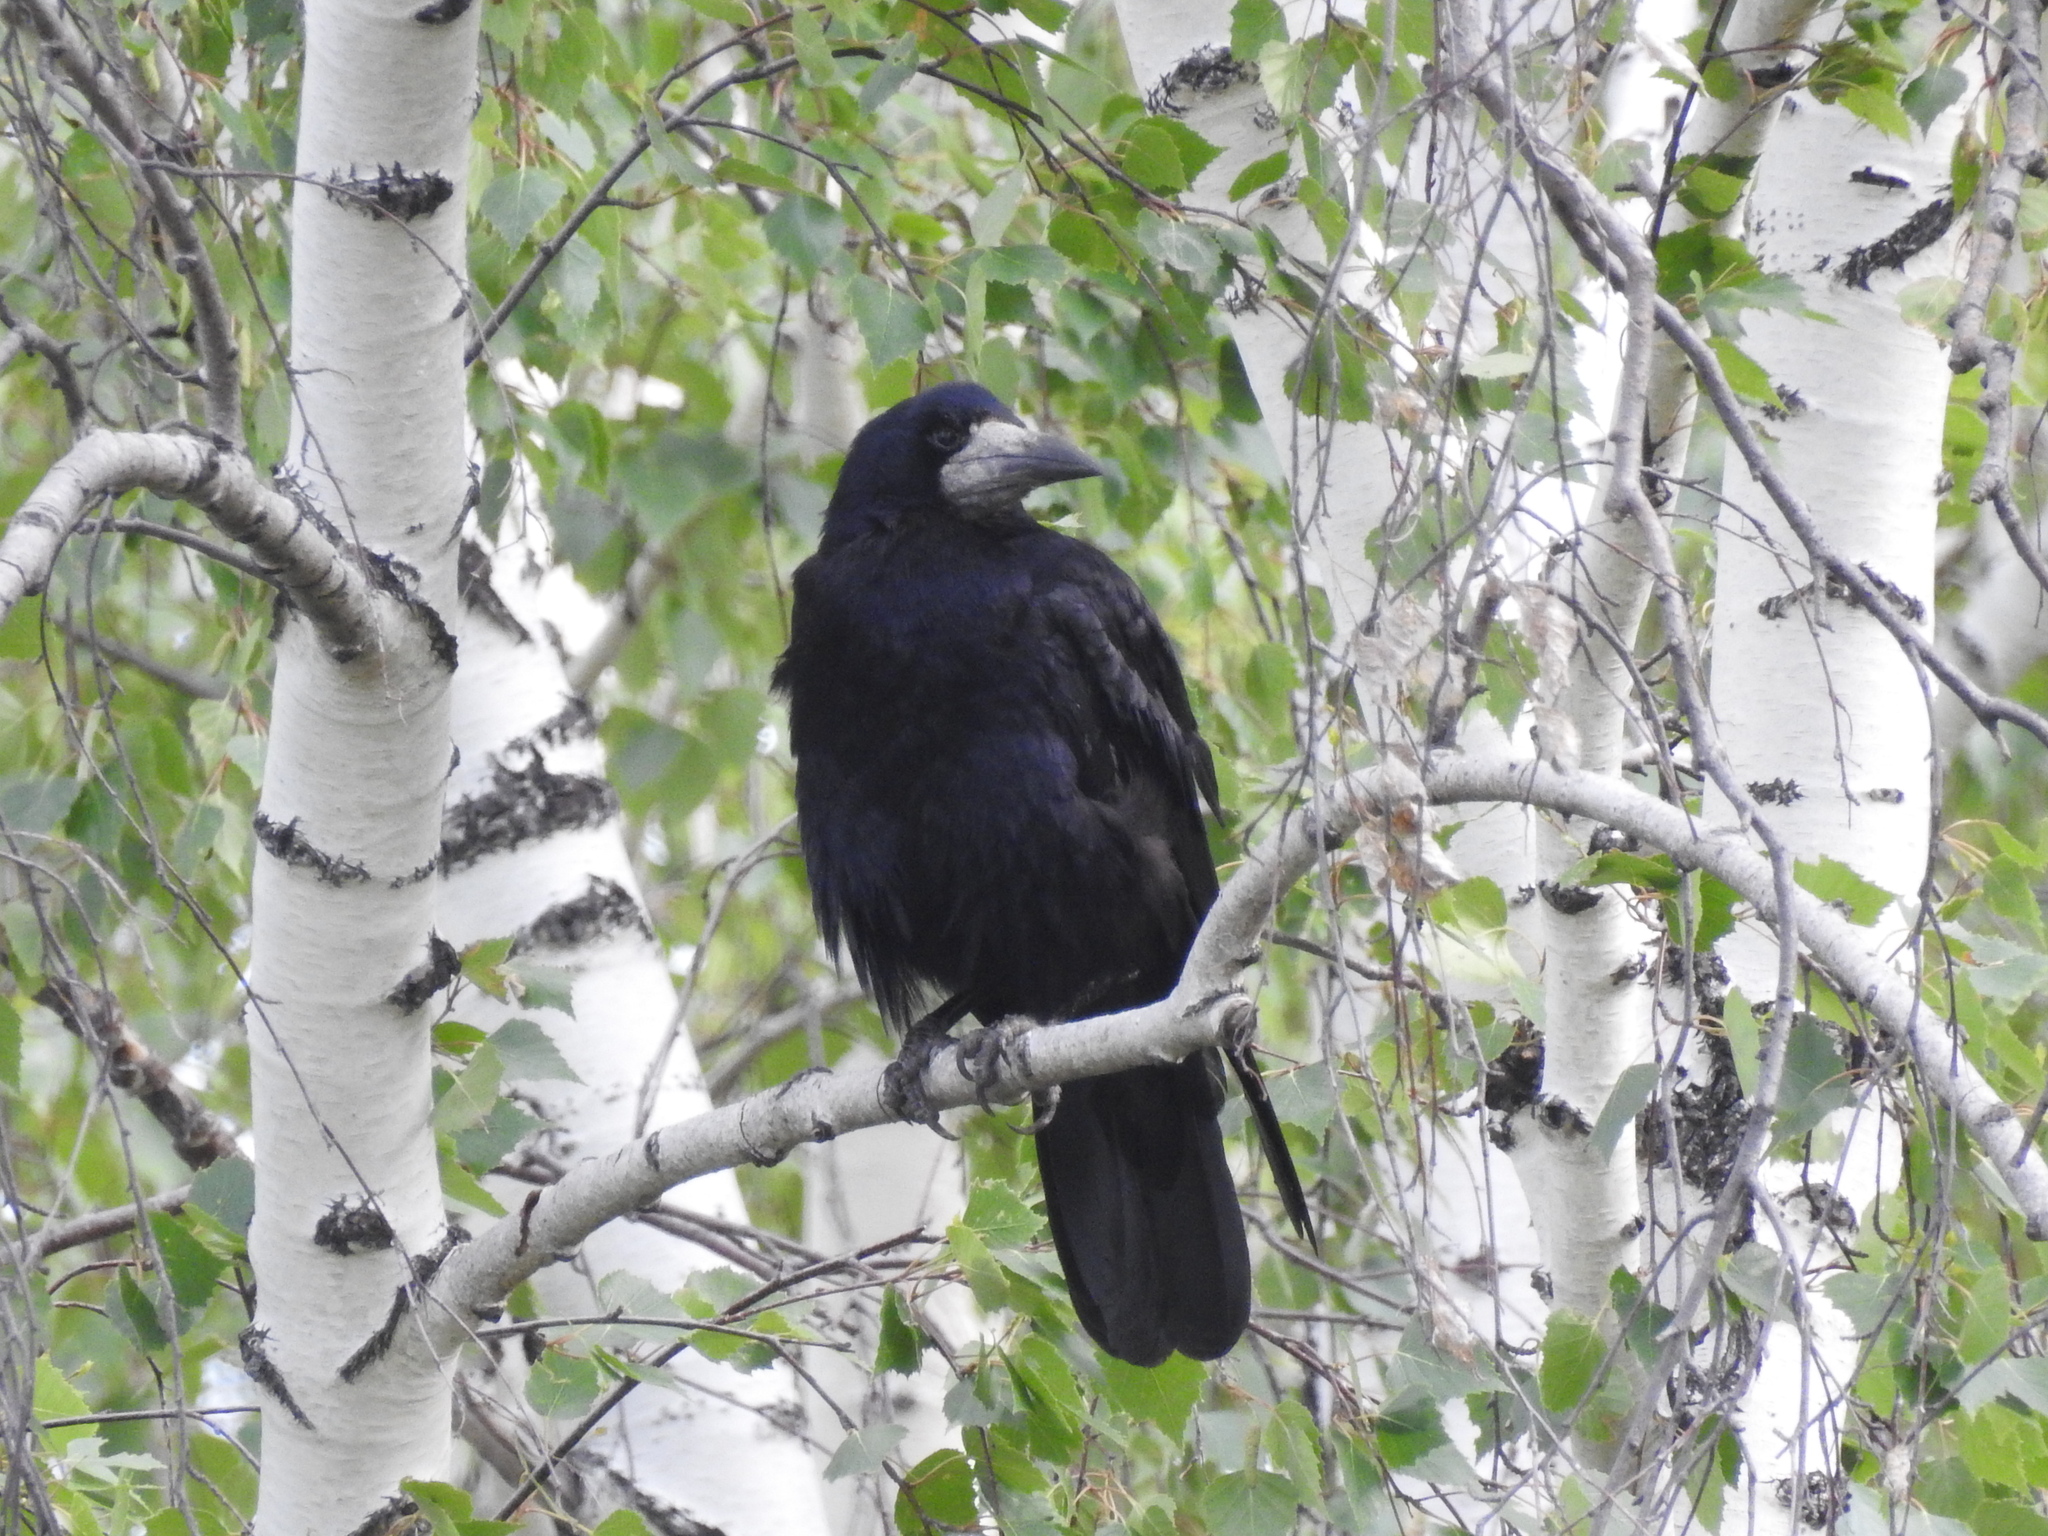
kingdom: Animalia
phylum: Chordata
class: Aves
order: Passeriformes
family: Corvidae
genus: Corvus
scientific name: Corvus frugilegus
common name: Rook
